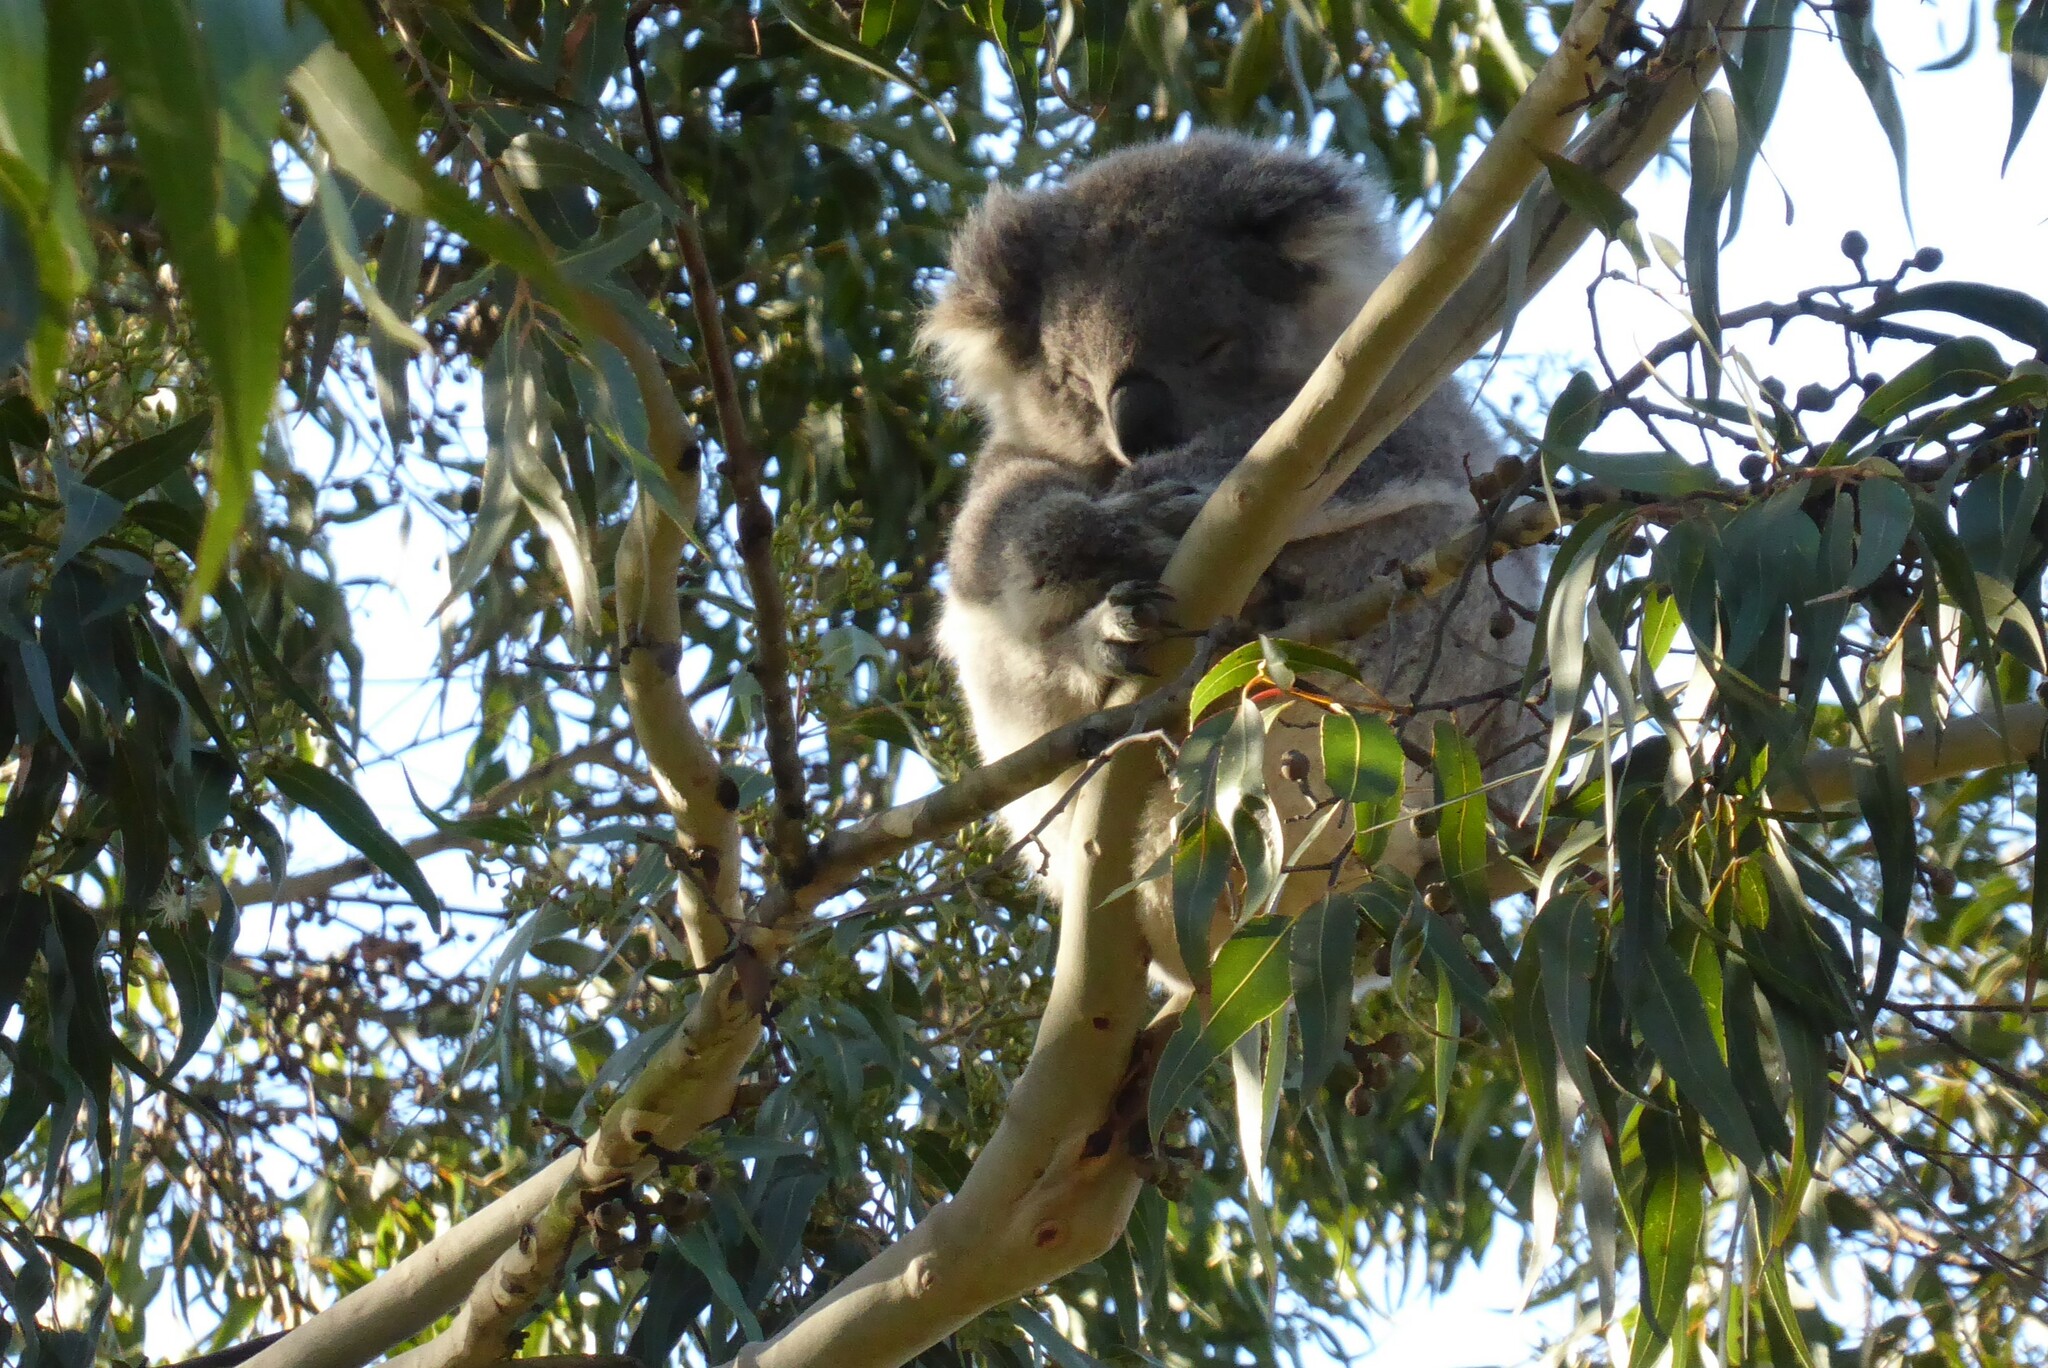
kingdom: Animalia
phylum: Chordata
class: Mammalia
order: Diprotodontia
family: Phascolarctidae
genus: Phascolarctos
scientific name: Phascolarctos cinereus
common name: Koala
